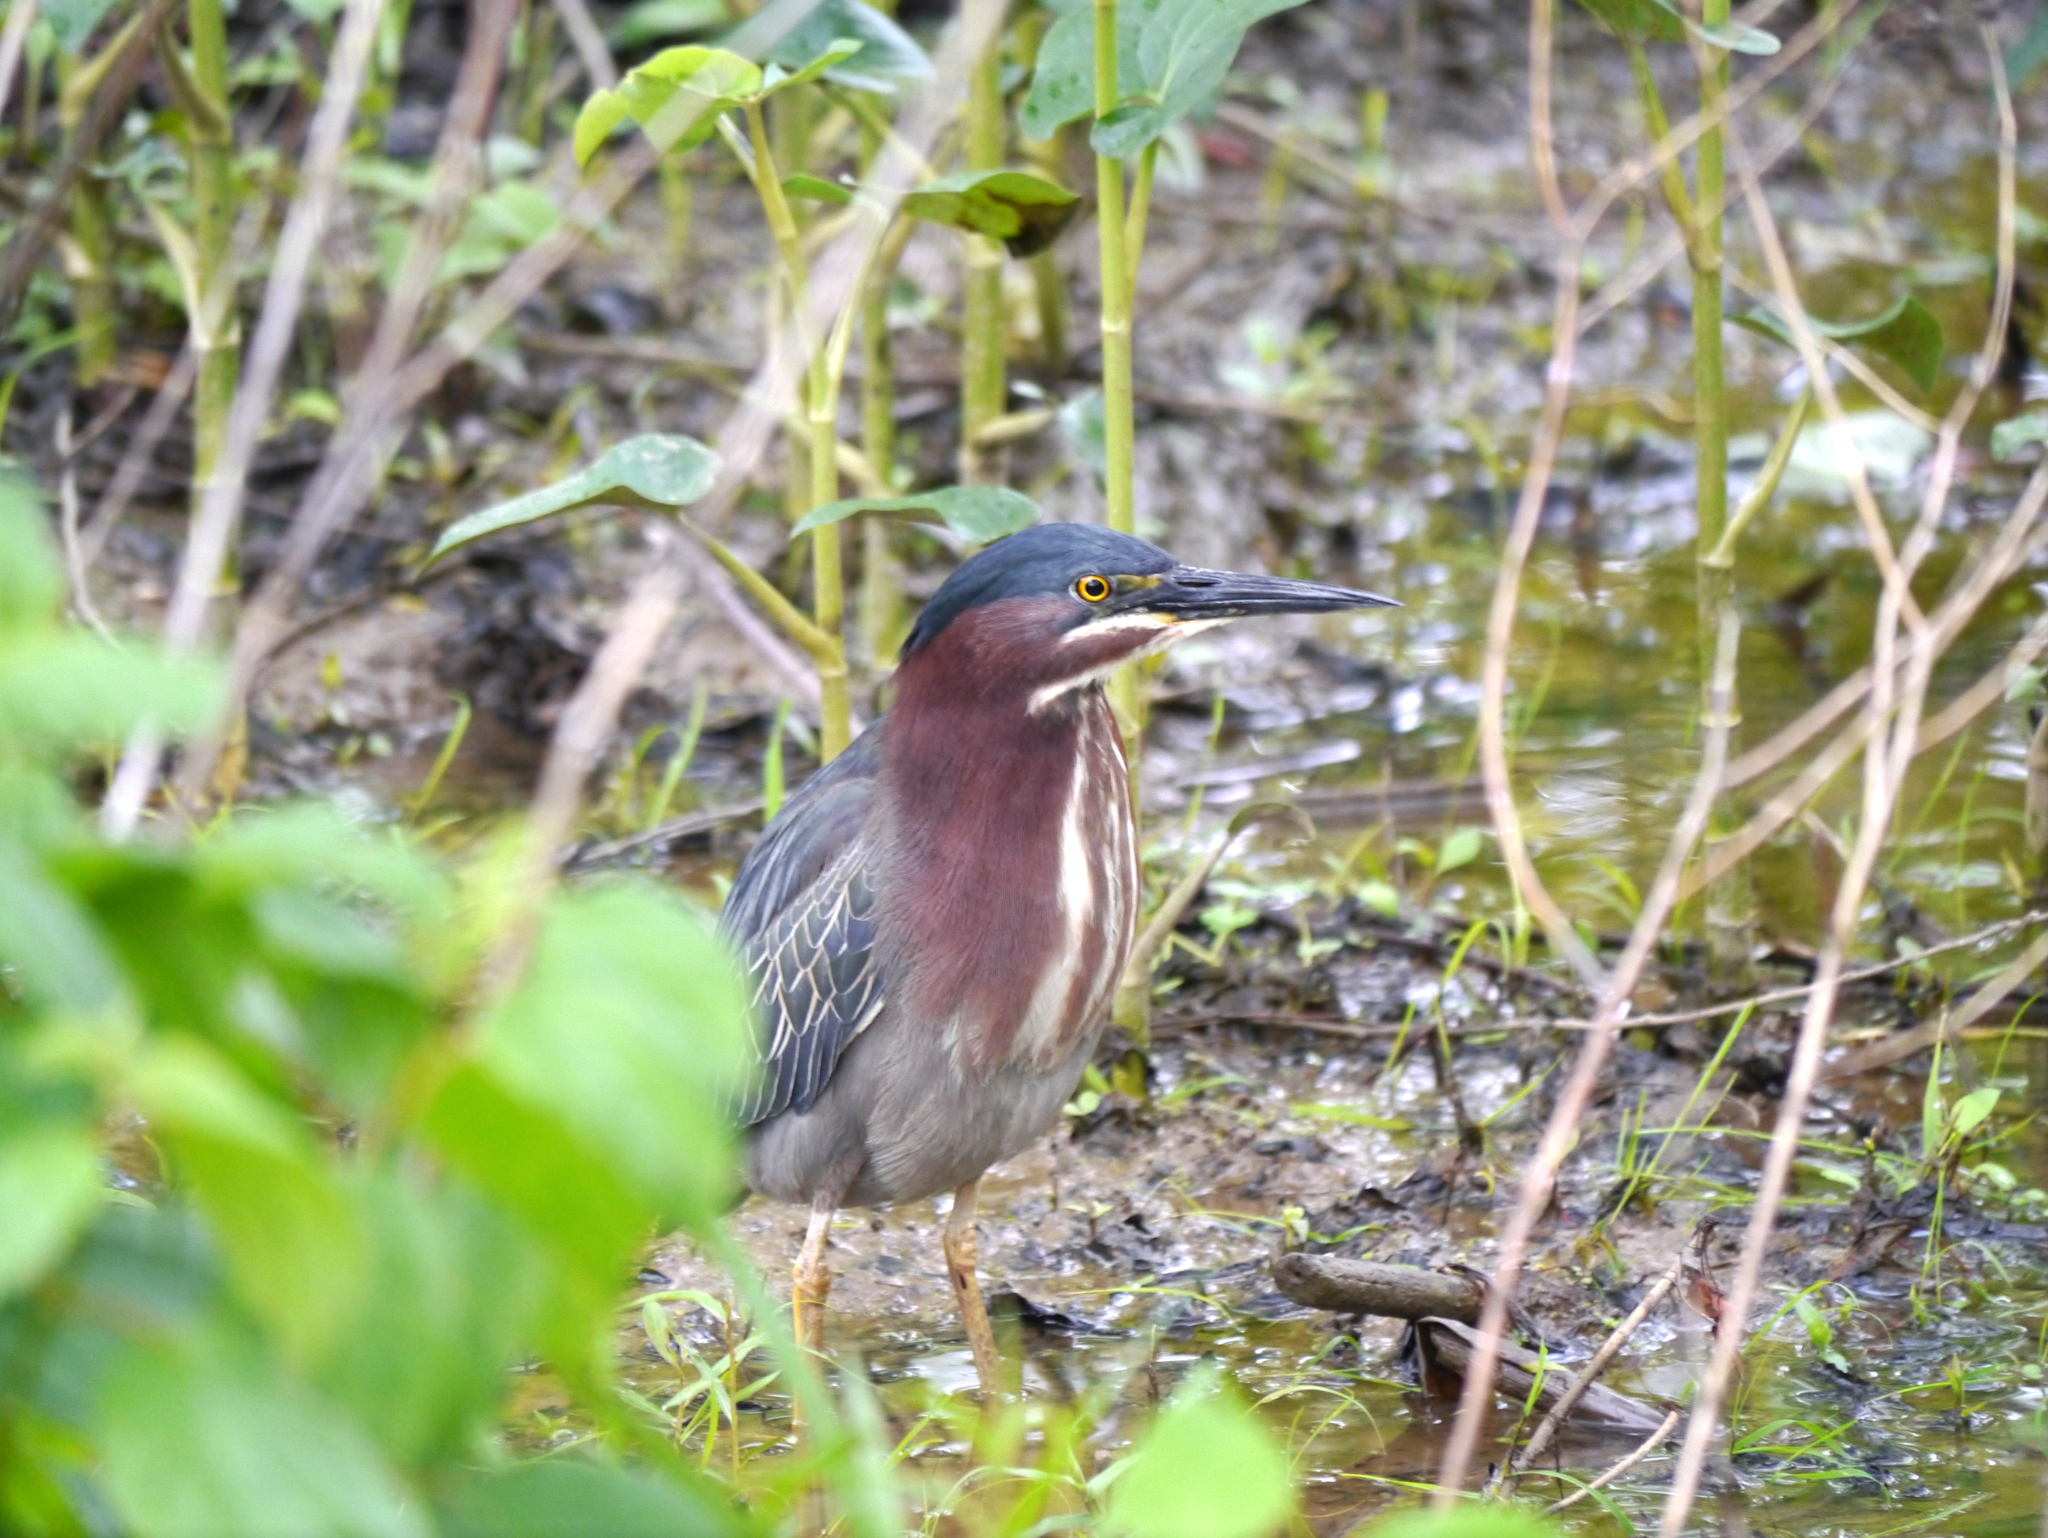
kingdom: Animalia
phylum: Chordata
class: Aves
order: Pelecaniformes
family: Ardeidae
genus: Butorides
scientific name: Butorides virescens
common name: Green heron
